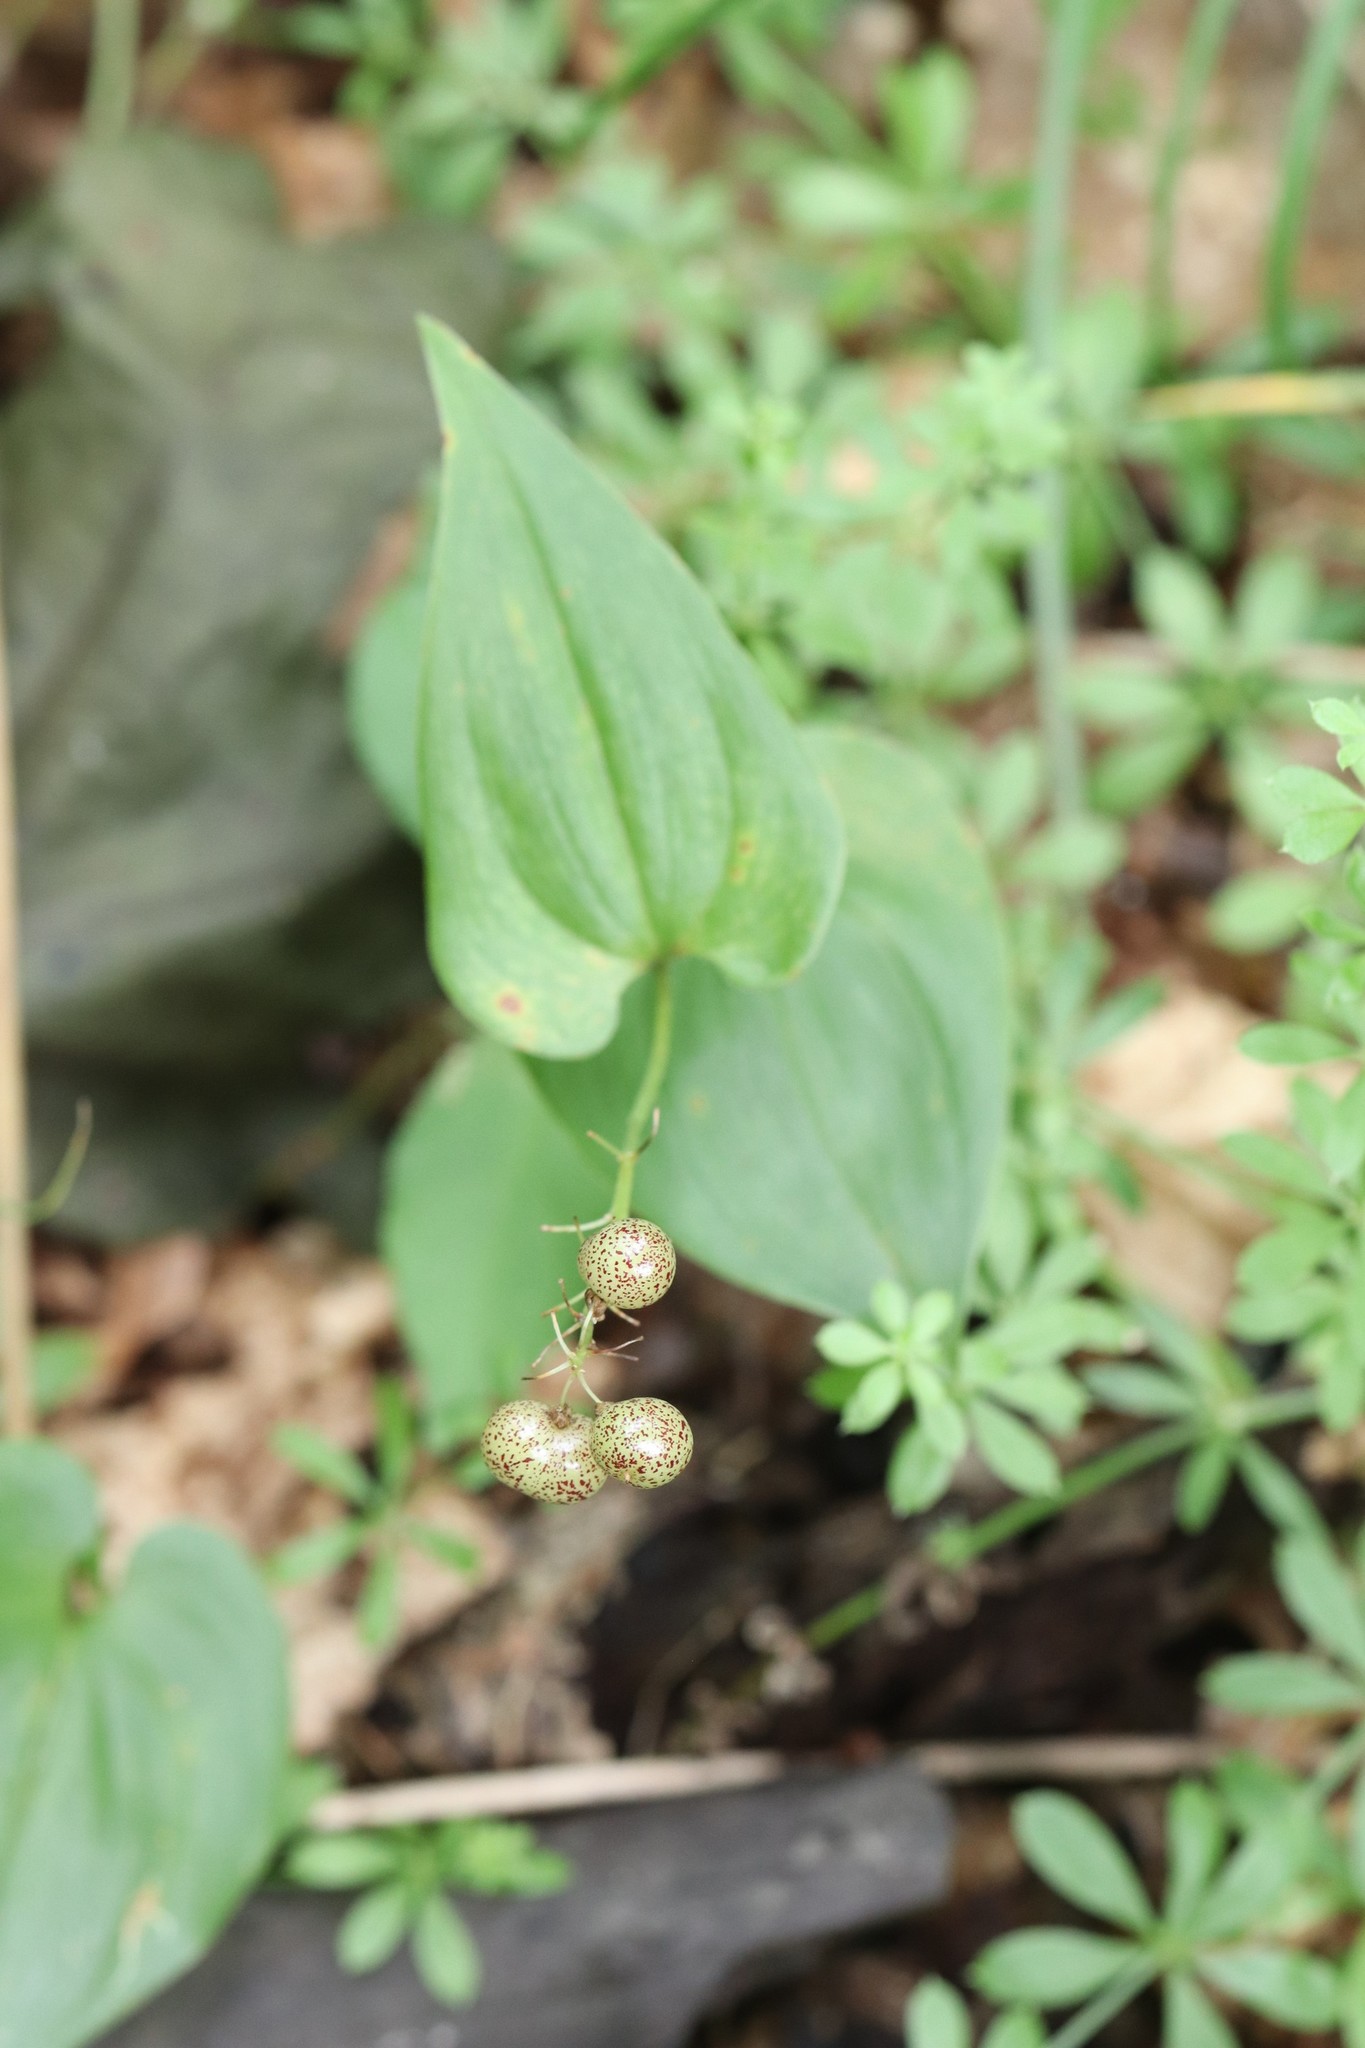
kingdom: Plantae
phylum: Tracheophyta
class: Liliopsida
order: Asparagales
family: Asparagaceae
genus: Maianthemum
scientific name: Maianthemum dilatatum
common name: False lily-of-the-valley
